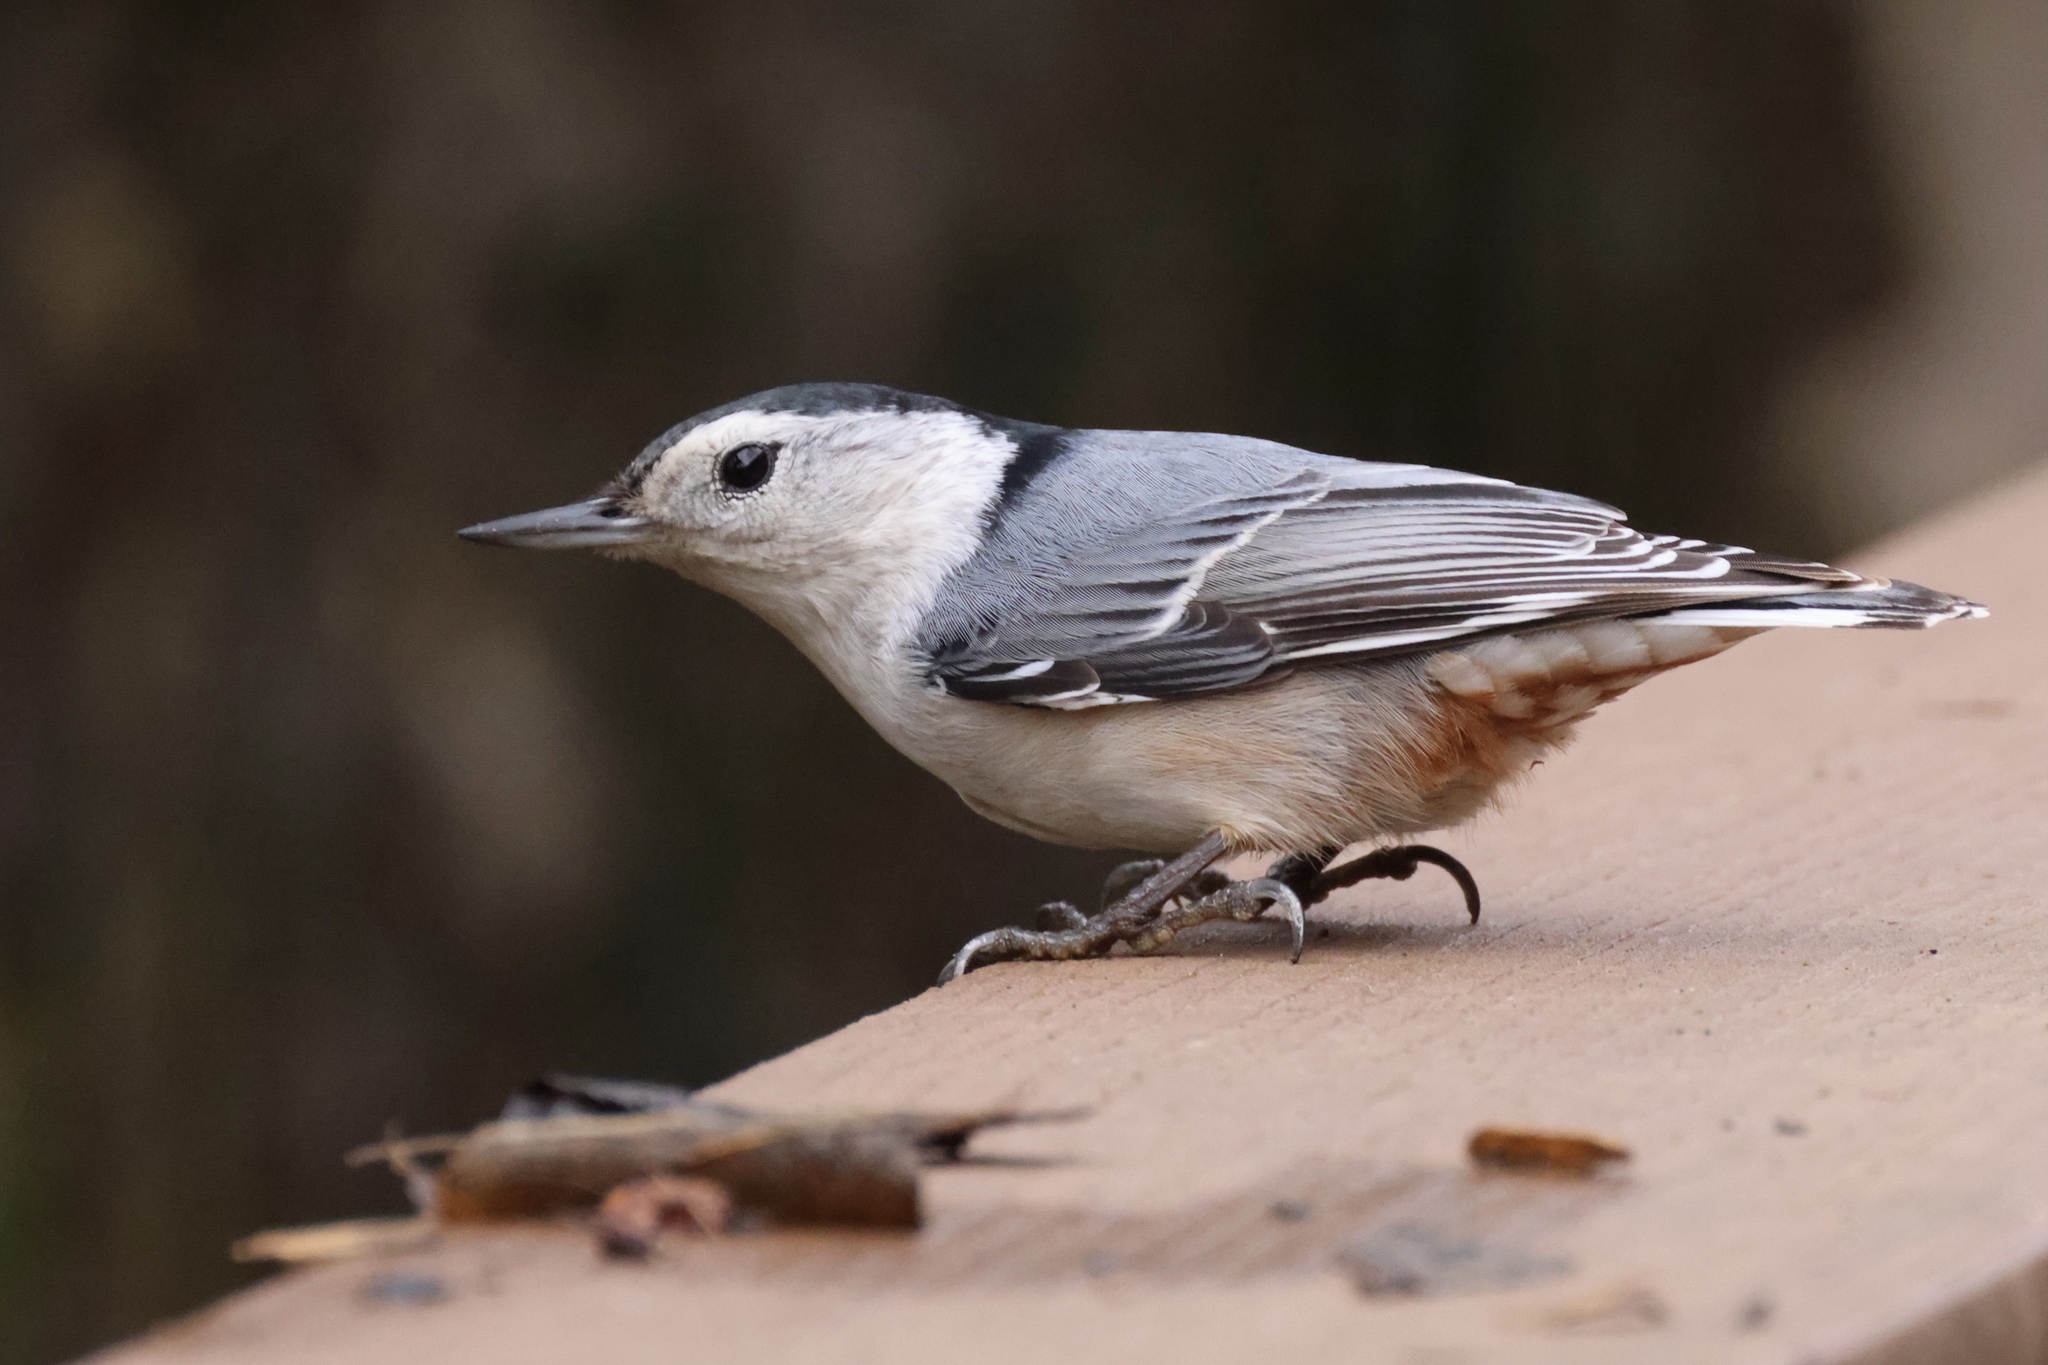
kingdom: Animalia
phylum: Chordata
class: Aves
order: Passeriformes
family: Sittidae
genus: Sitta
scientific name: Sitta carolinensis
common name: White-breasted nuthatch
